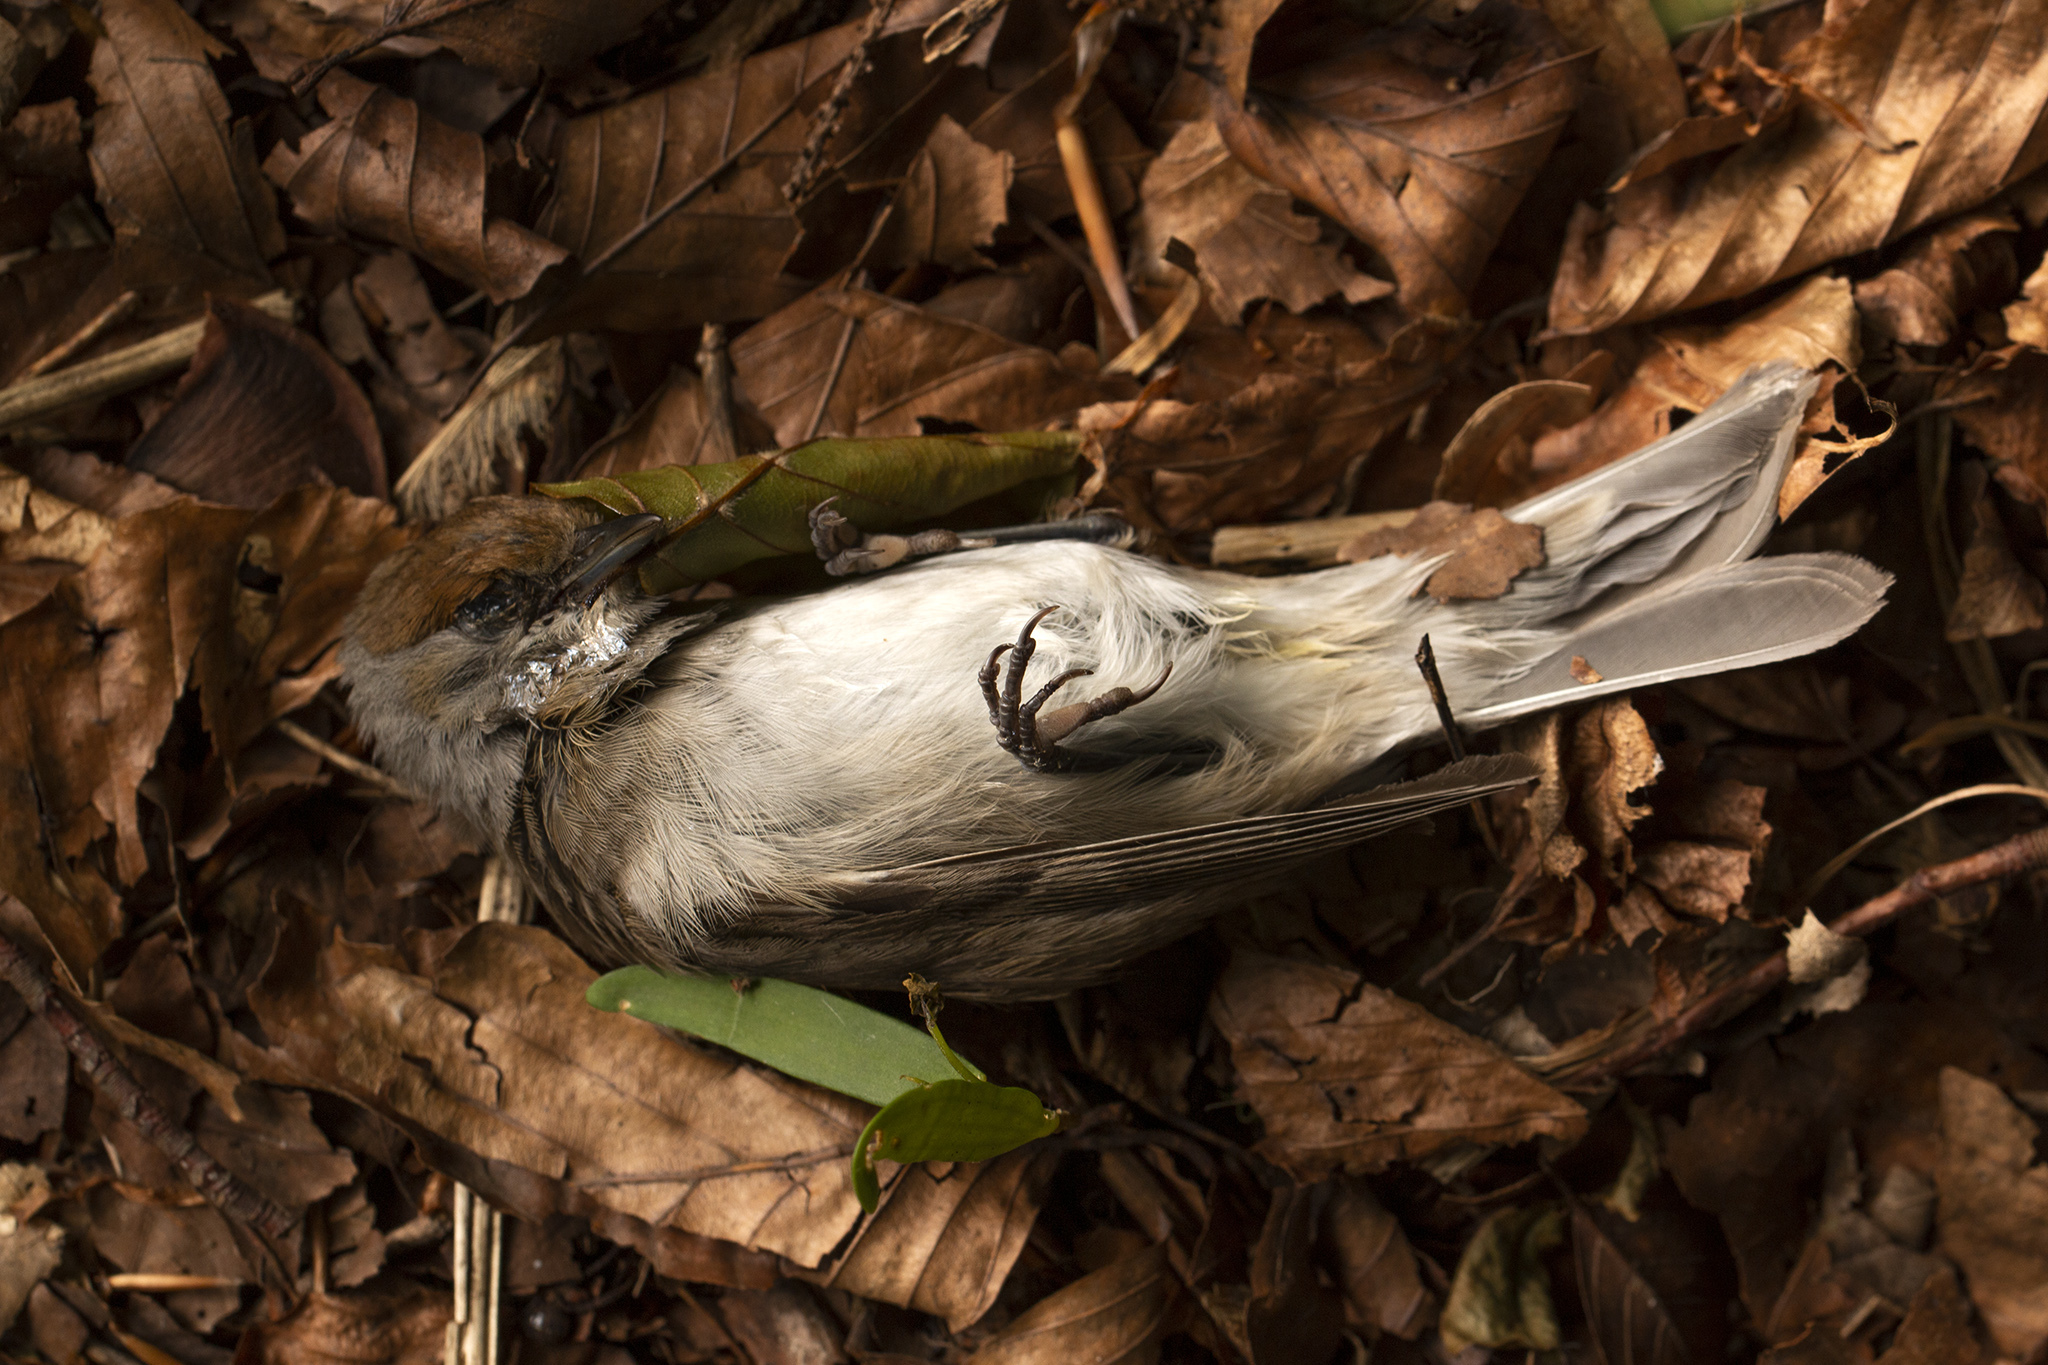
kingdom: Animalia
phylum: Chordata
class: Aves
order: Passeriformes
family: Sylviidae
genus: Sylvia
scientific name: Sylvia atricapilla
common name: Eurasian blackcap
